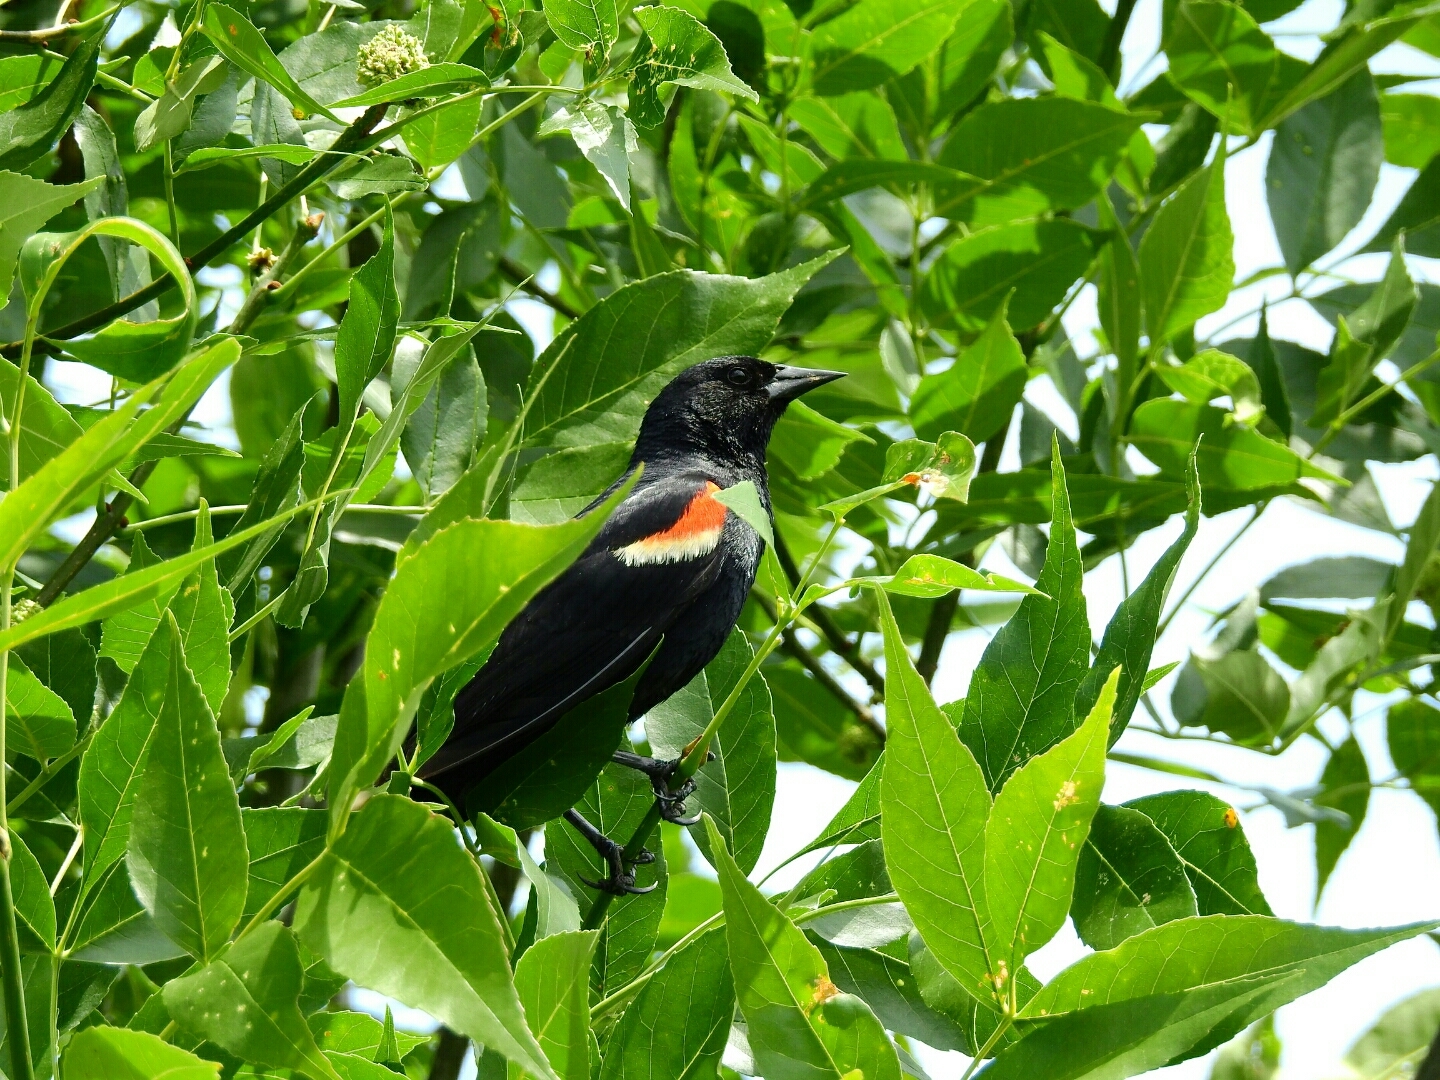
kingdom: Animalia
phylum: Chordata
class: Aves
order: Passeriformes
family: Icteridae
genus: Agelaius
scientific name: Agelaius phoeniceus
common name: Red-winged blackbird
